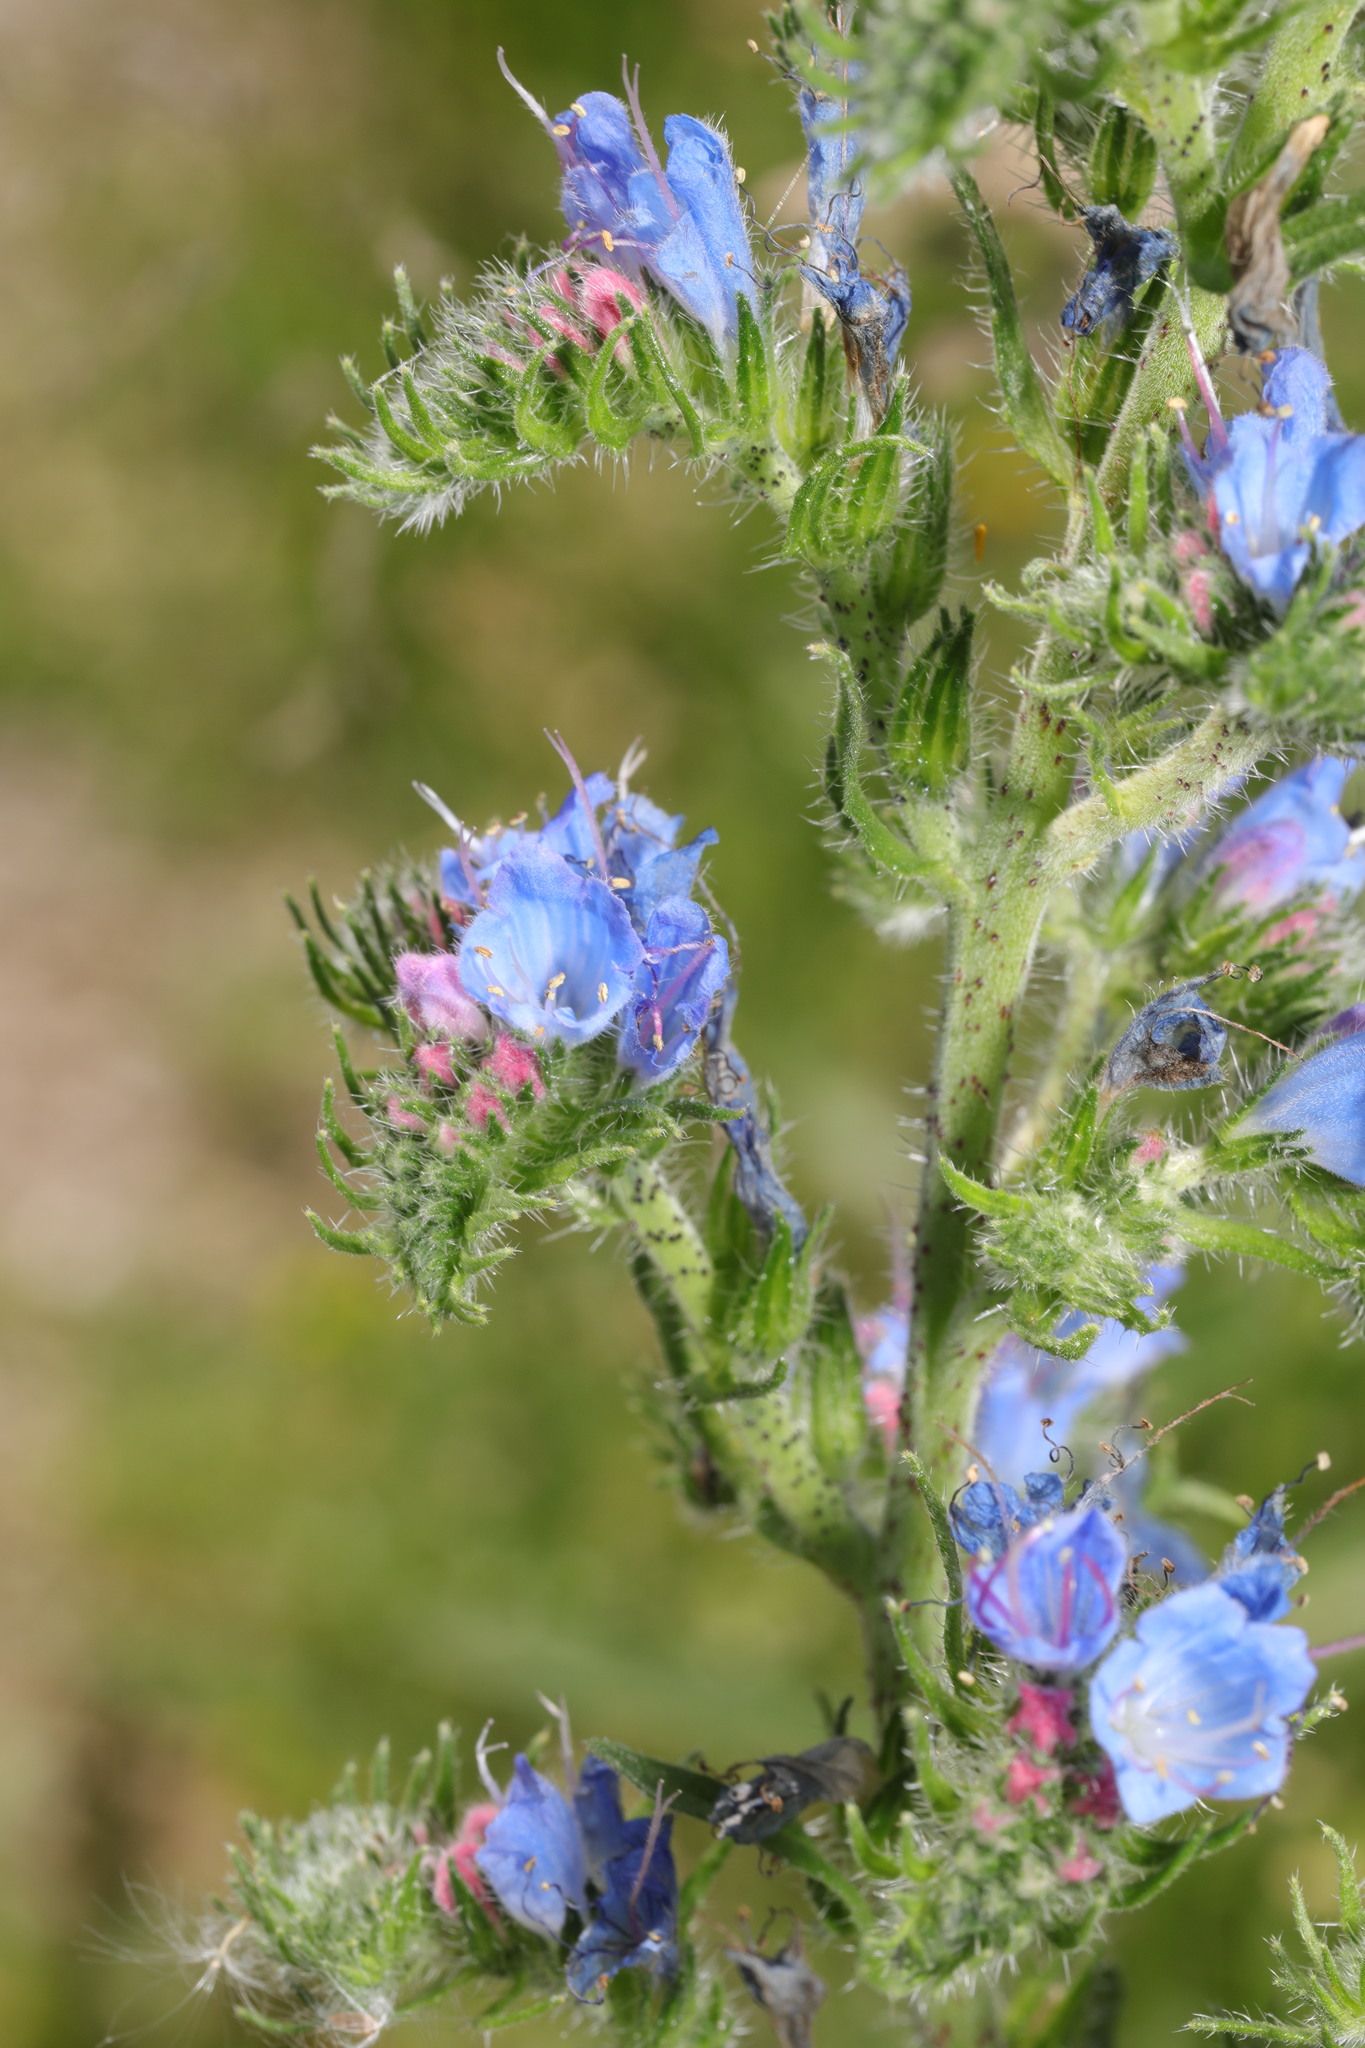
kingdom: Plantae
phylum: Tracheophyta
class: Magnoliopsida
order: Boraginales
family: Boraginaceae
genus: Echium
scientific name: Echium vulgare
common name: Common viper's bugloss
